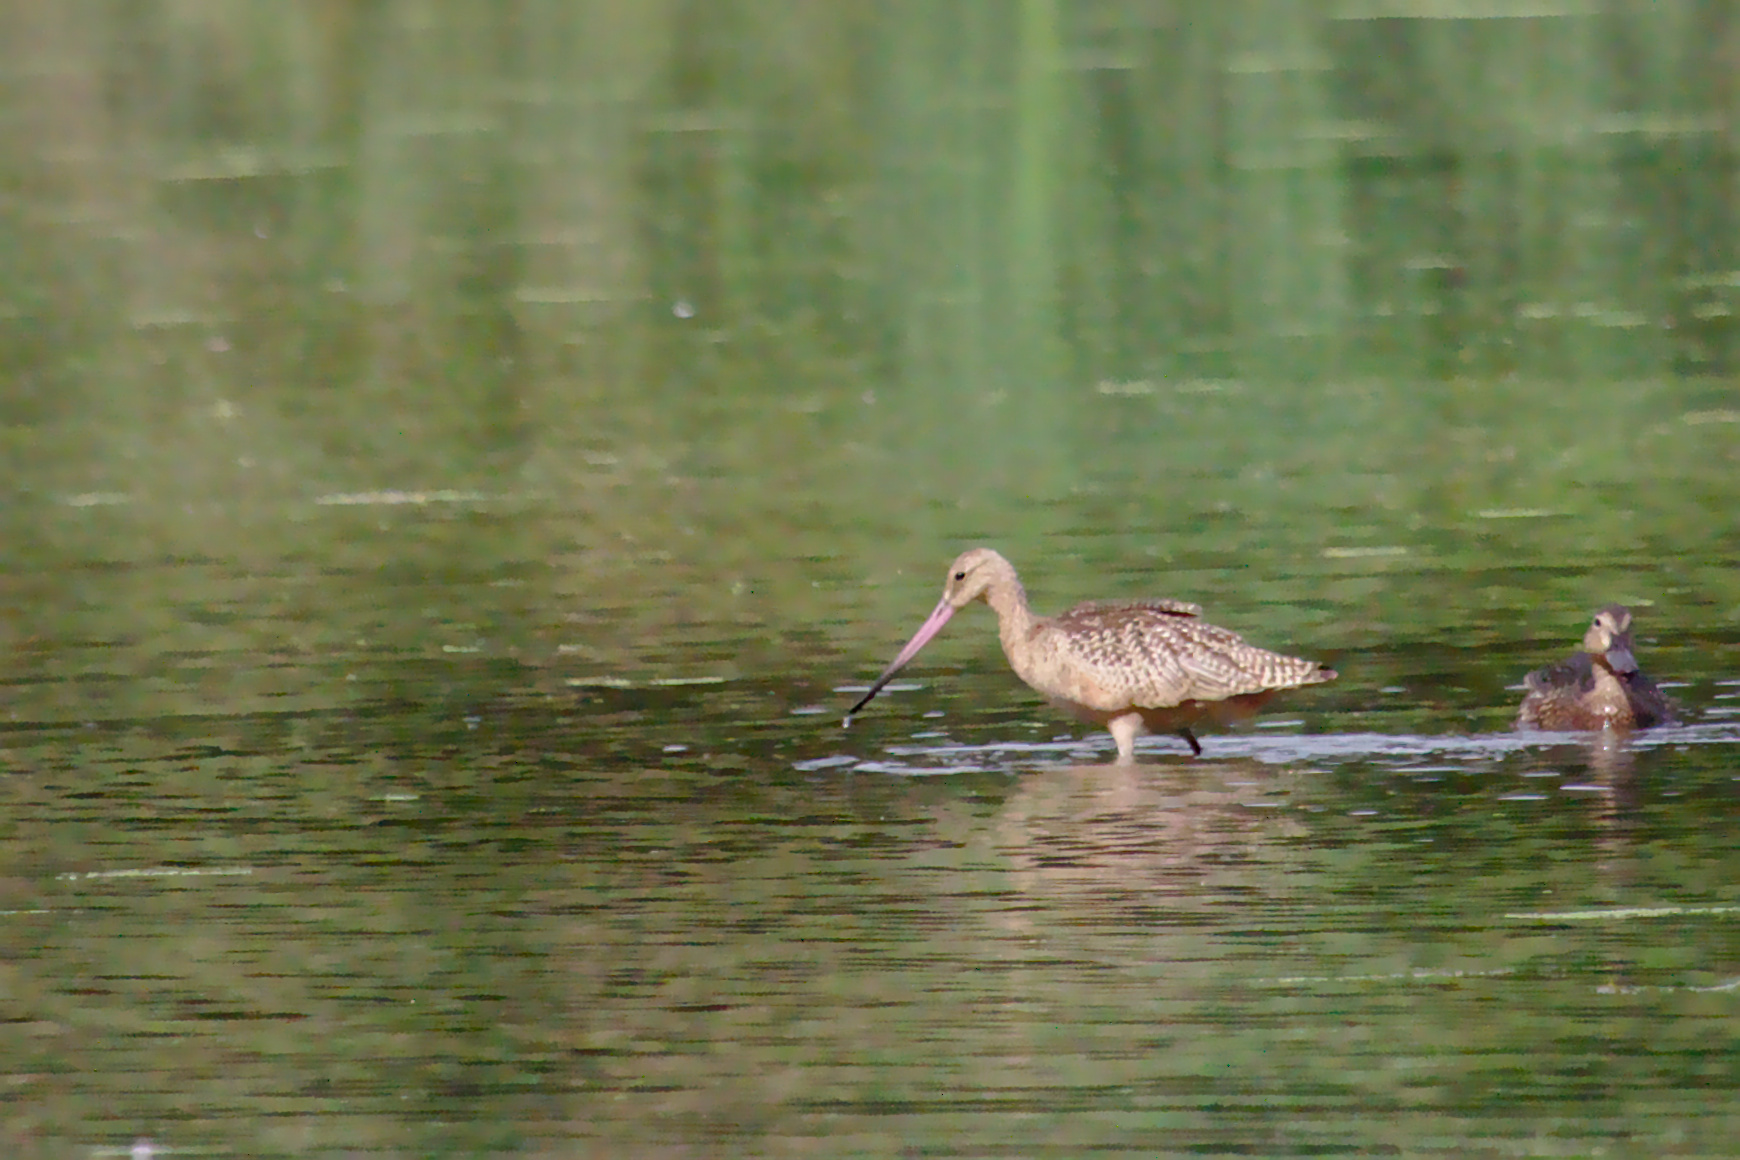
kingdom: Animalia
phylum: Chordata
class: Aves
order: Charadriiformes
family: Scolopacidae
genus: Limosa
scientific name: Limosa fedoa
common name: Marbled godwit
